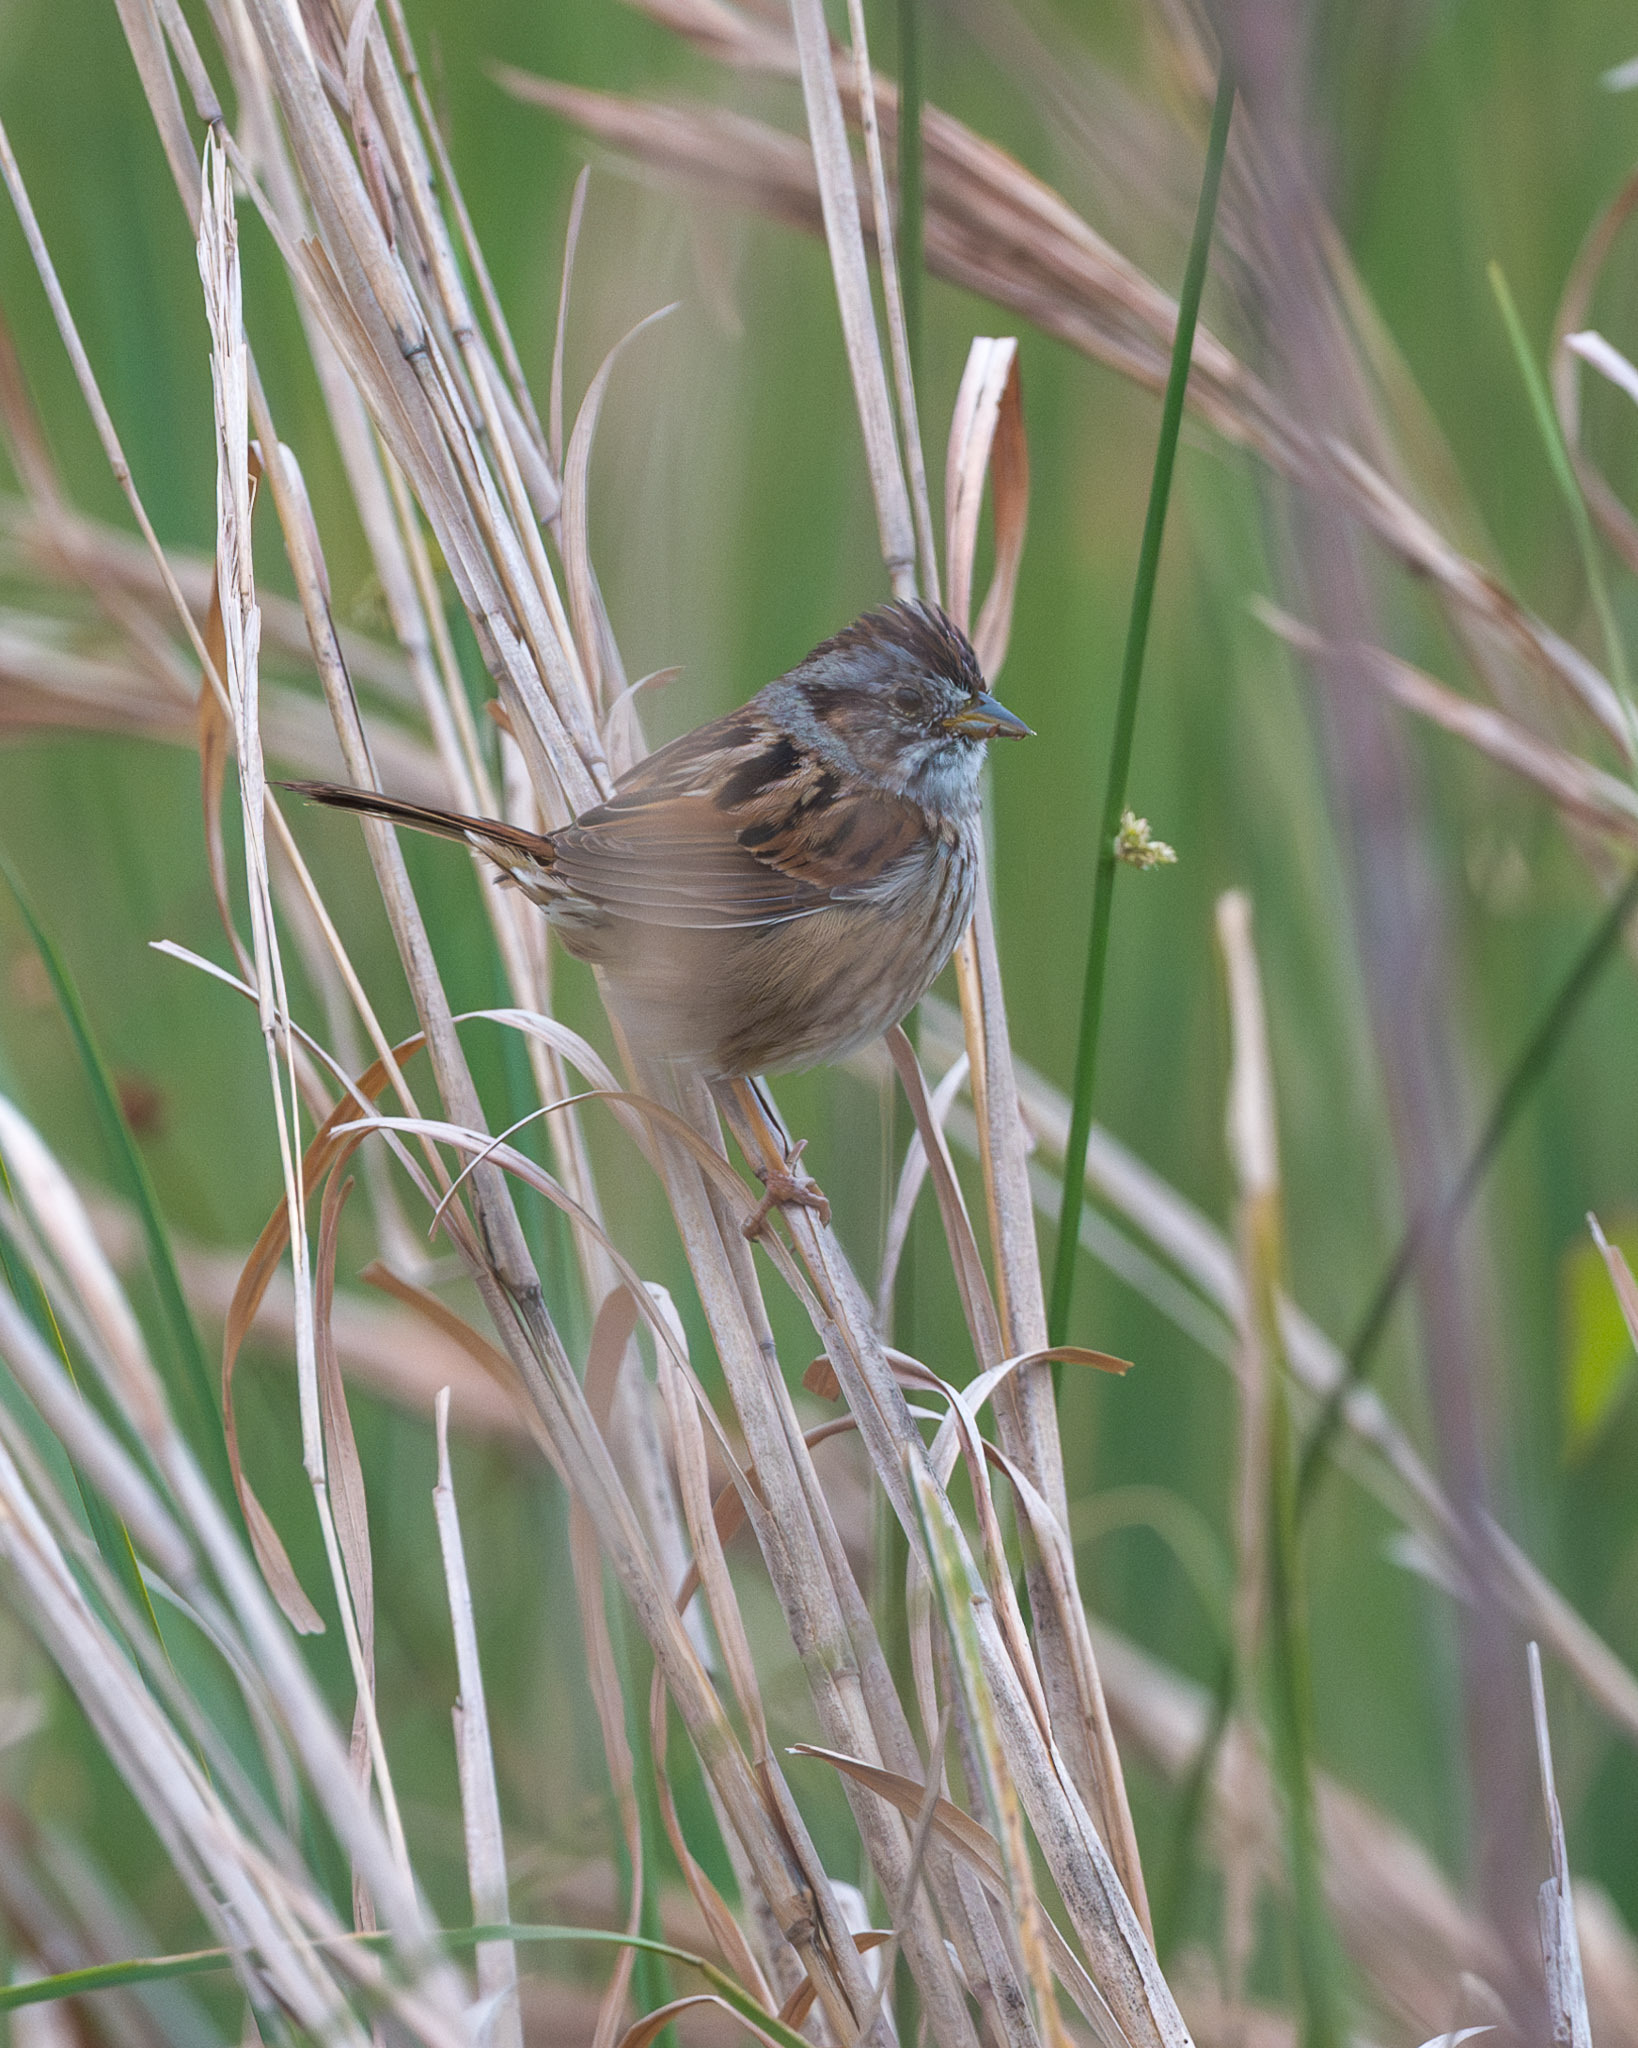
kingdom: Animalia
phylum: Chordata
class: Aves
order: Passeriformes
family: Passerellidae
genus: Melospiza
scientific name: Melospiza georgiana
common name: Swamp sparrow
